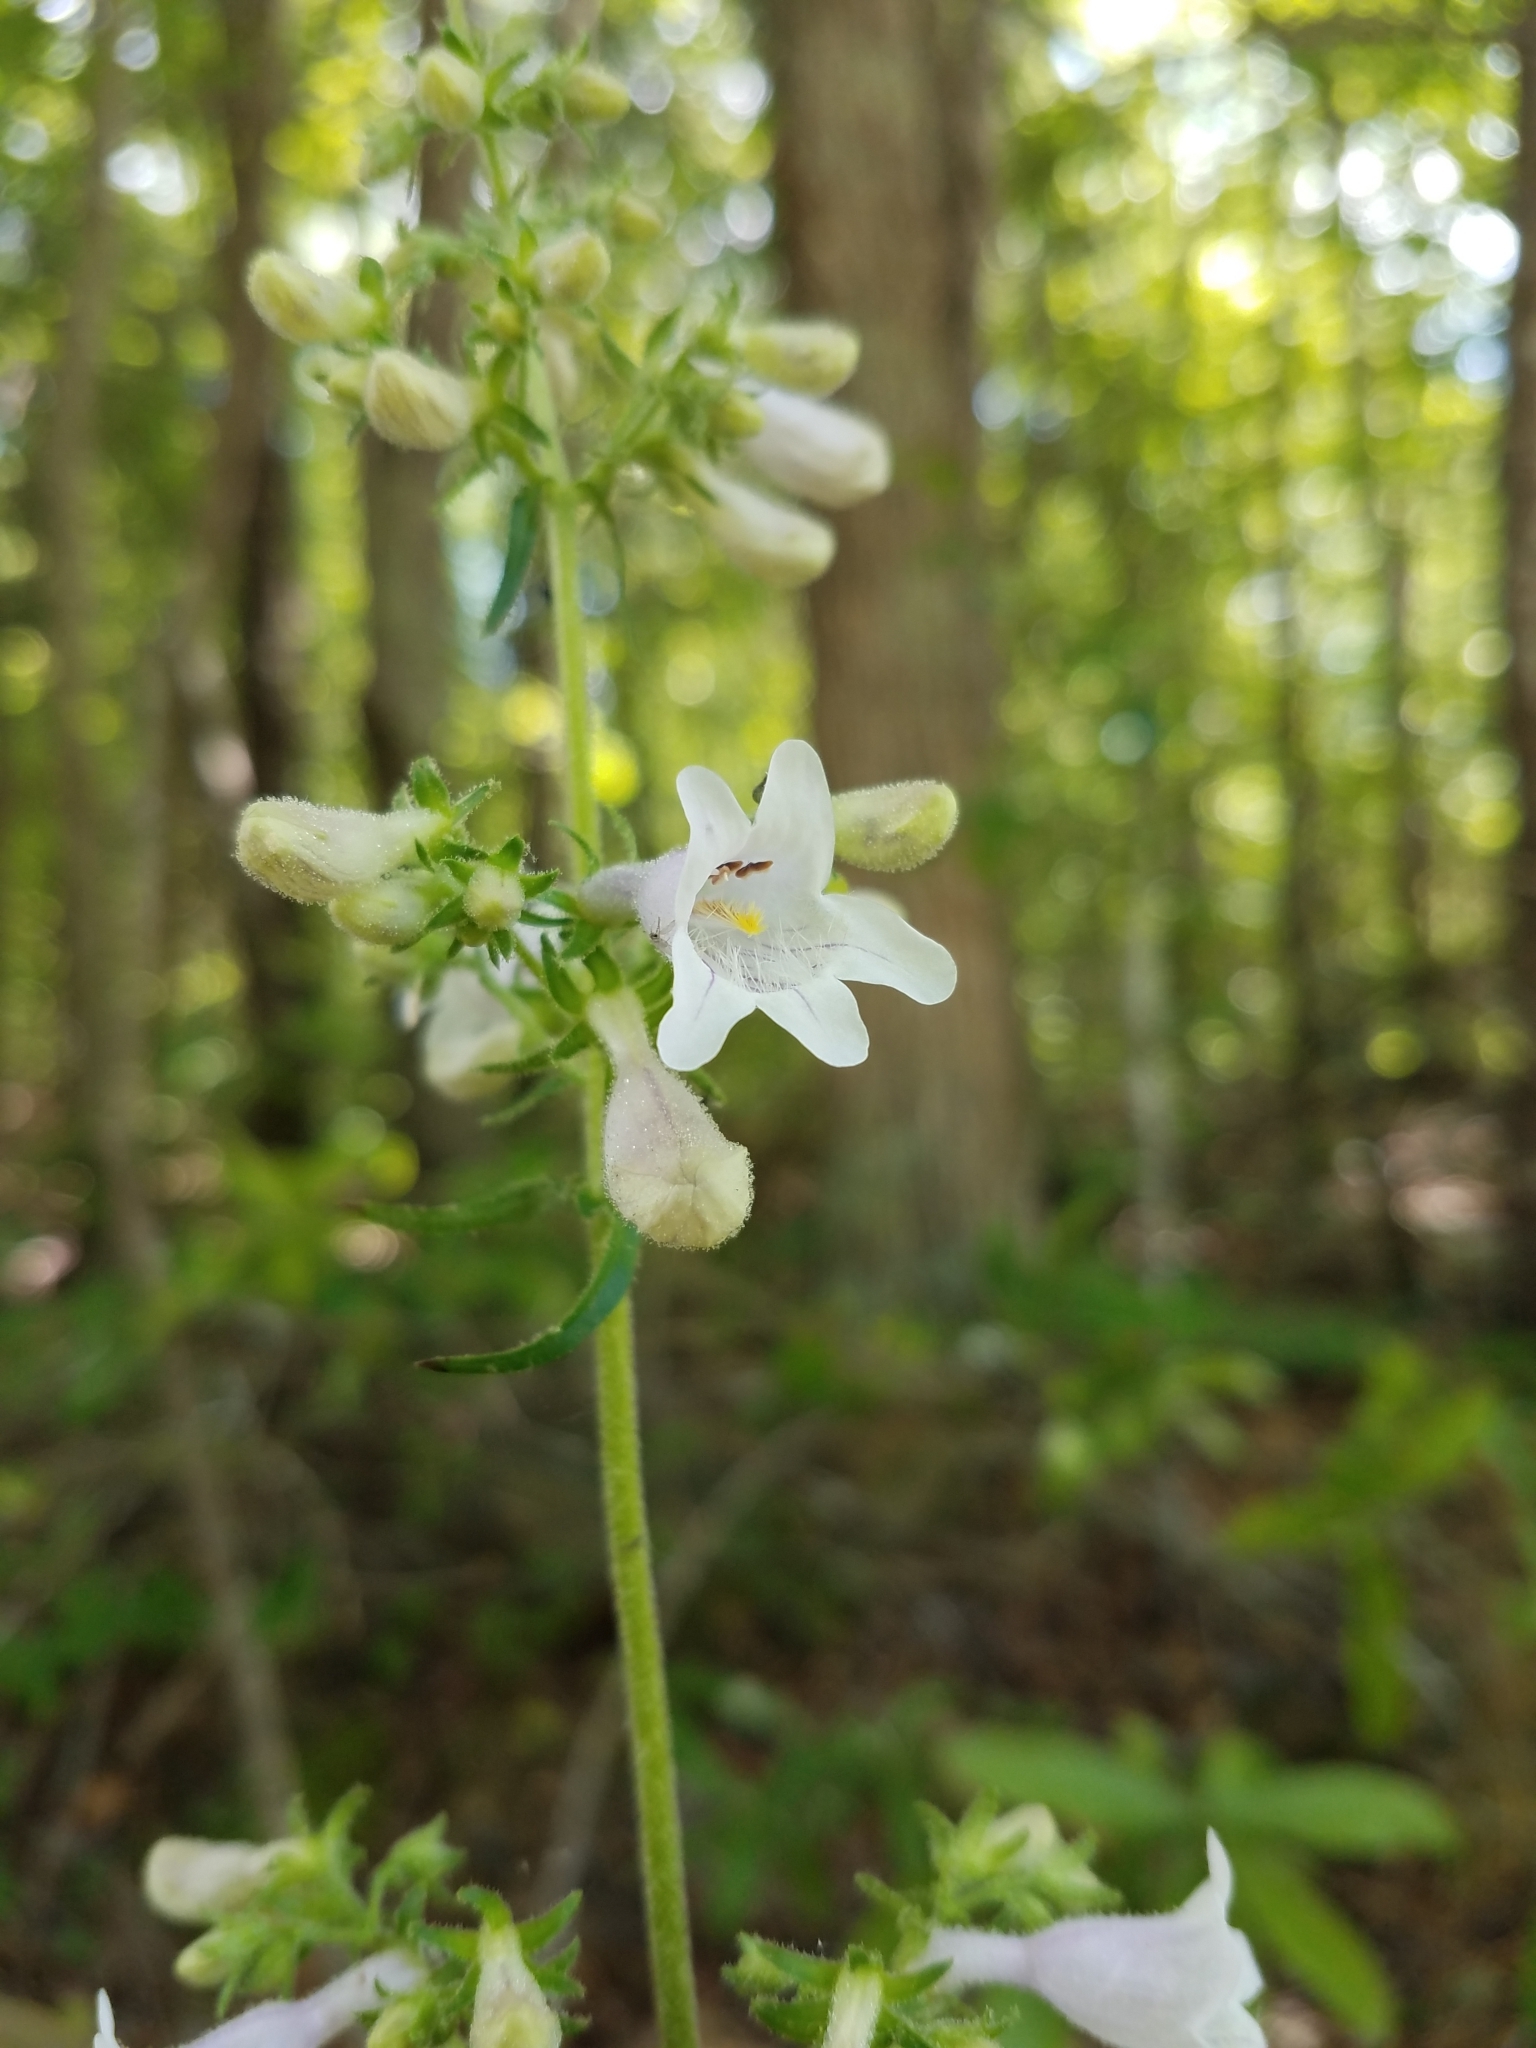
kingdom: Plantae
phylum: Tracheophyta
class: Magnoliopsida
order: Lamiales
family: Plantaginaceae
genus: Penstemon
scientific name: Penstemon laevigatus
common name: Eastern beardtongue
